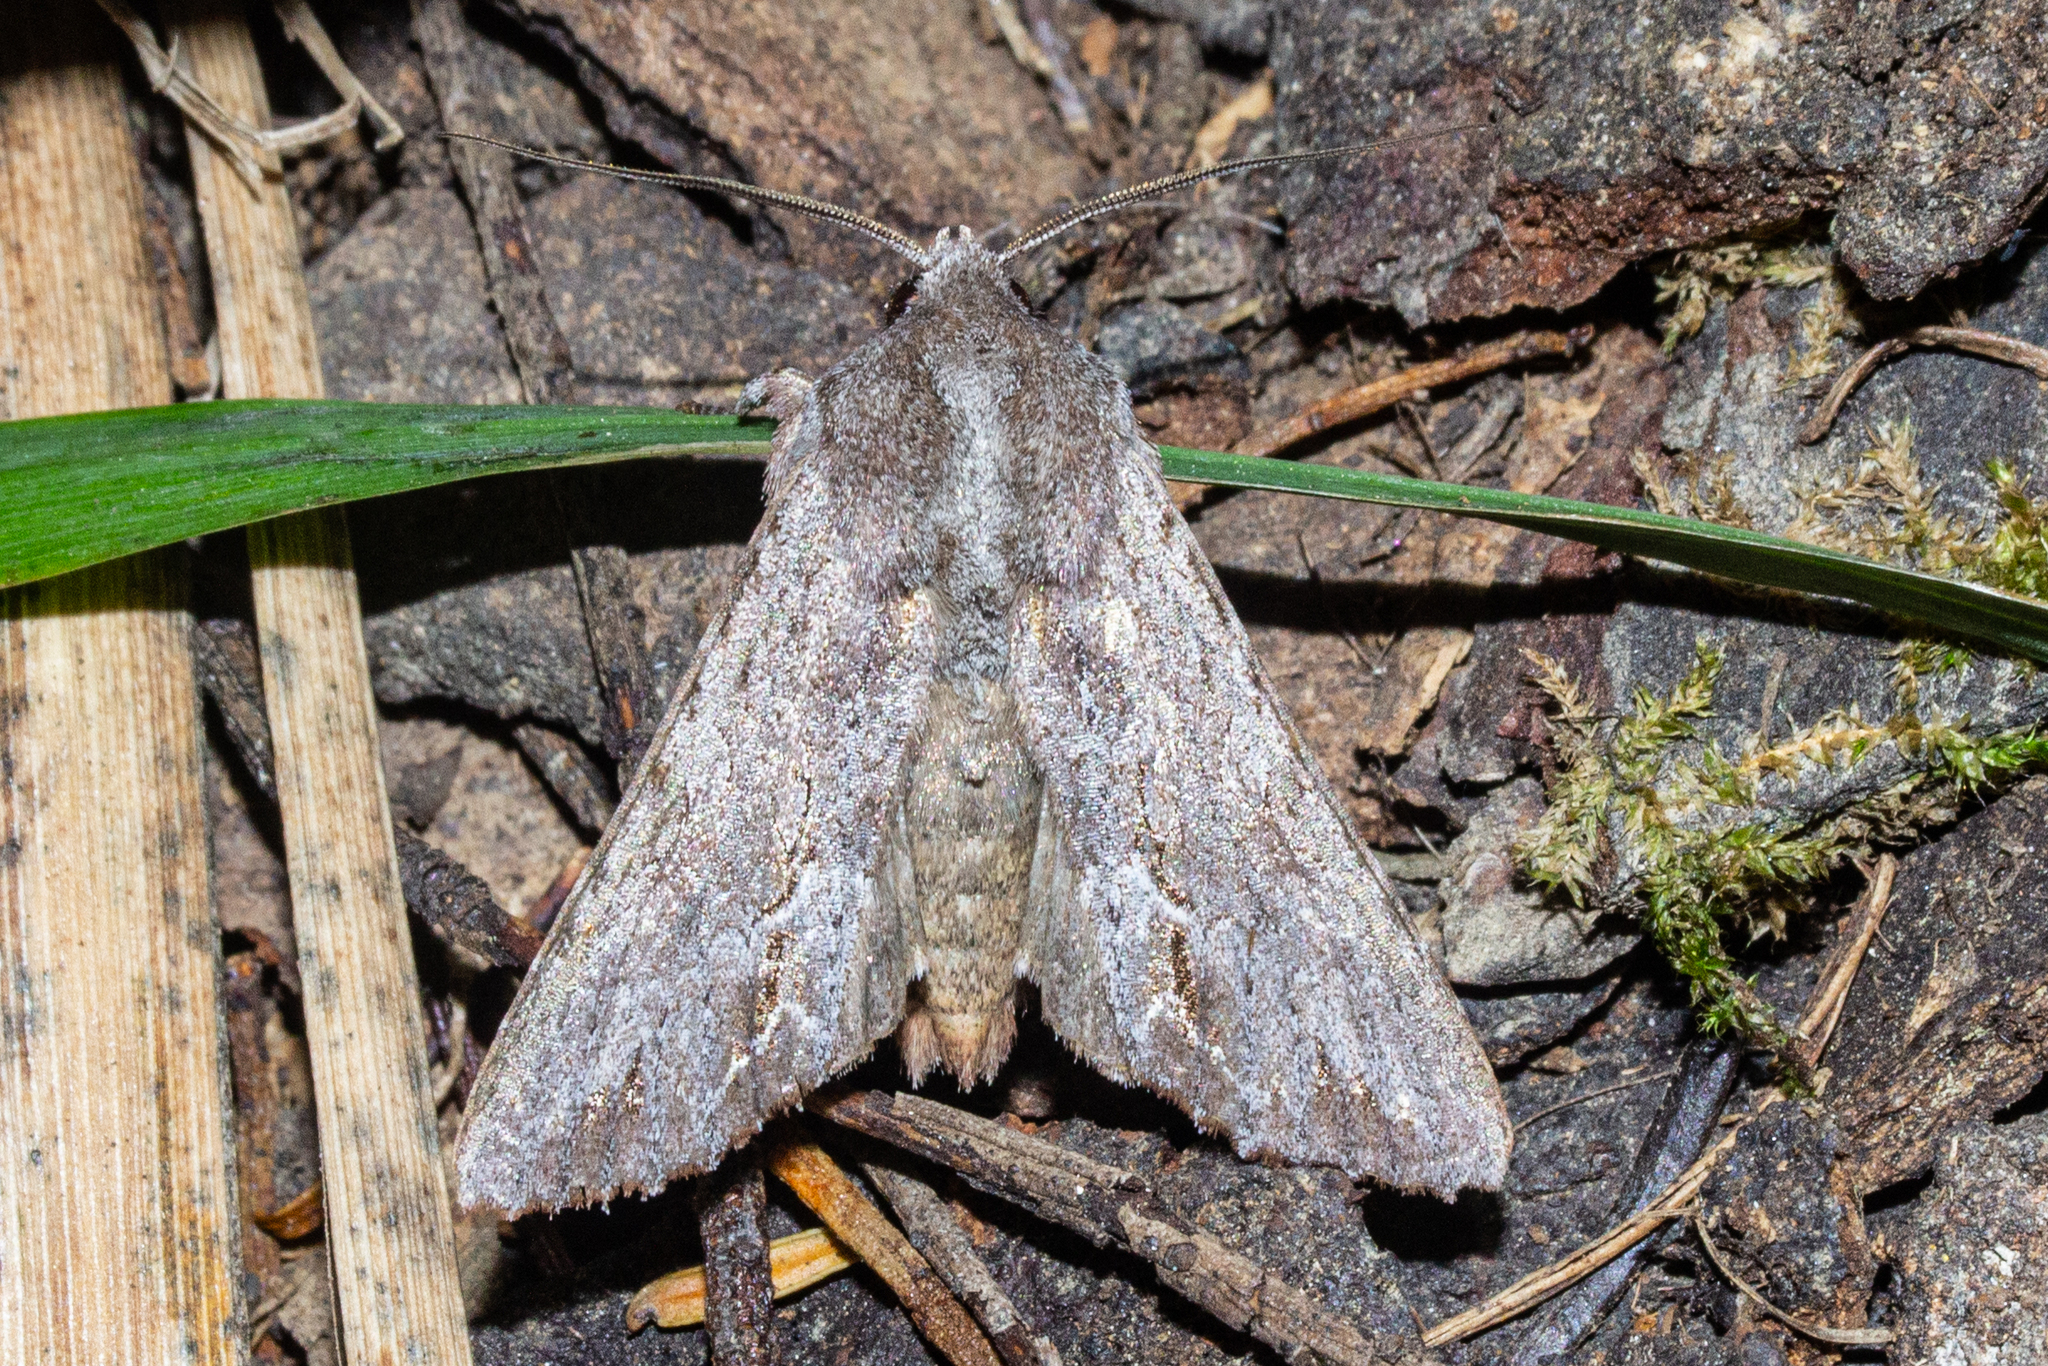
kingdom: Animalia
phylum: Arthropoda
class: Insecta
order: Lepidoptera
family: Noctuidae
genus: Ichneutica
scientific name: Ichneutica
